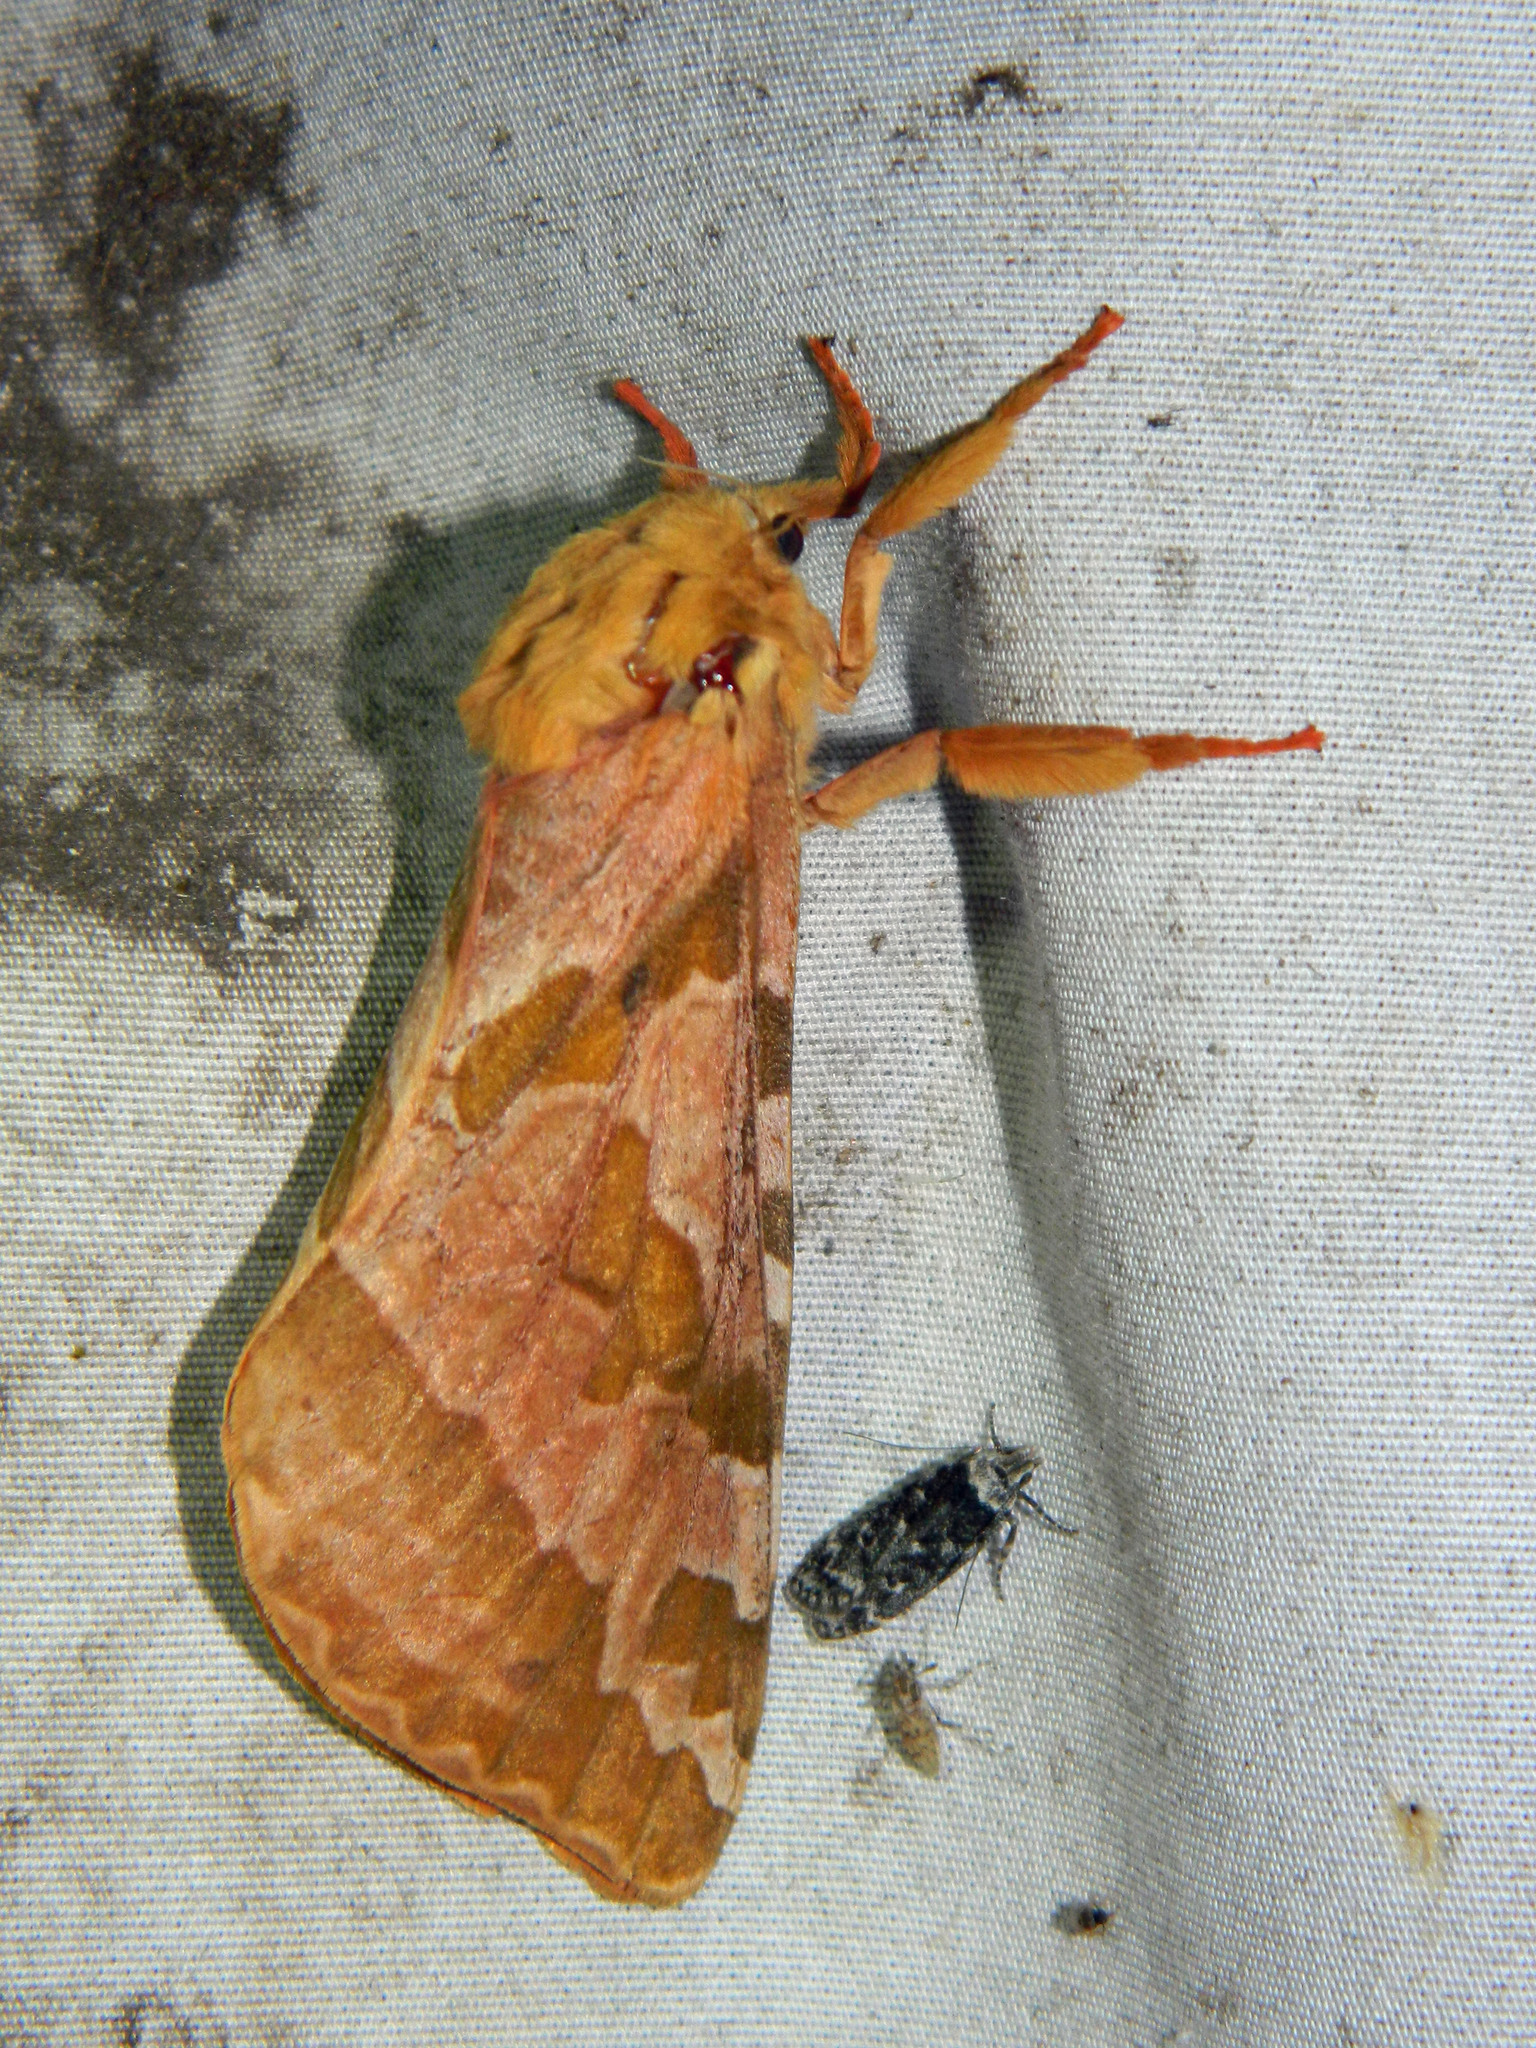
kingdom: Animalia
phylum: Arthropoda
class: Insecta
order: Lepidoptera
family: Hepialidae
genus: Sthenopis
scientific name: Sthenopis purpurascens
